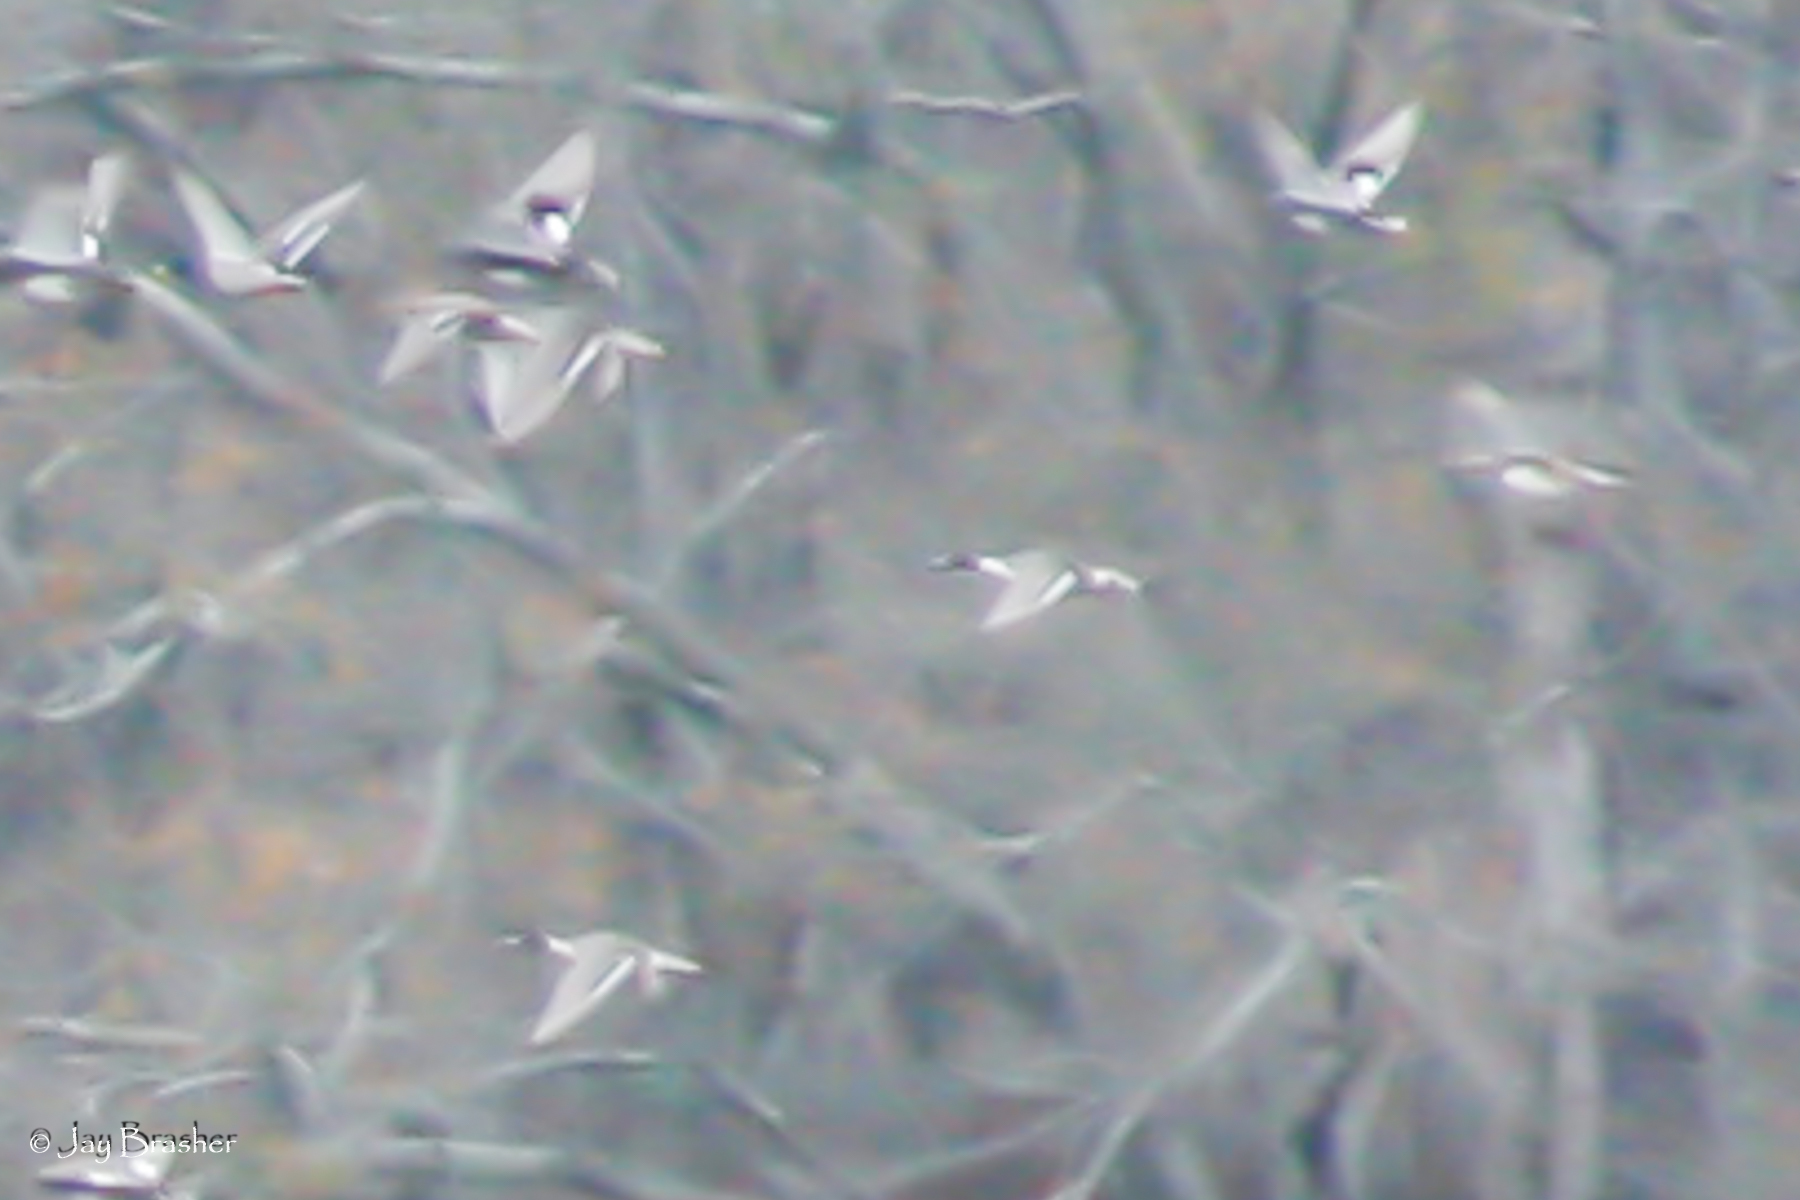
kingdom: Animalia
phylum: Chordata
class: Aves
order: Anseriformes
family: Anatidae
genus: Anas
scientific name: Anas acuta
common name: Northern pintail
